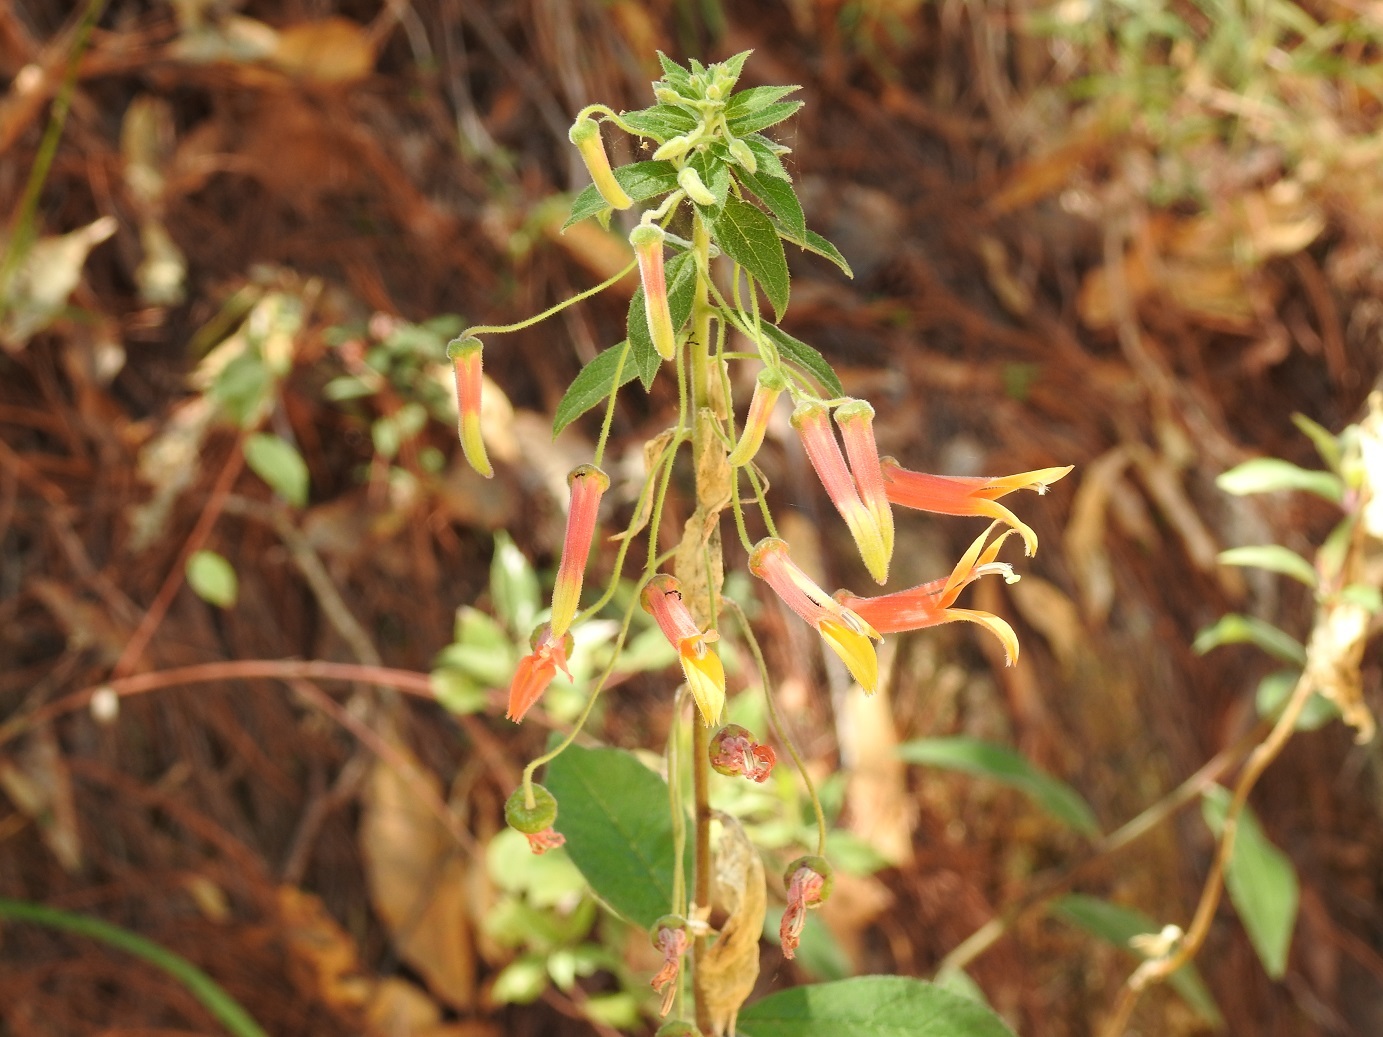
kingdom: Plantae
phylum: Tracheophyta
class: Magnoliopsida
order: Asterales
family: Campanulaceae
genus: Lobelia
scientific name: Lobelia laxiflora
